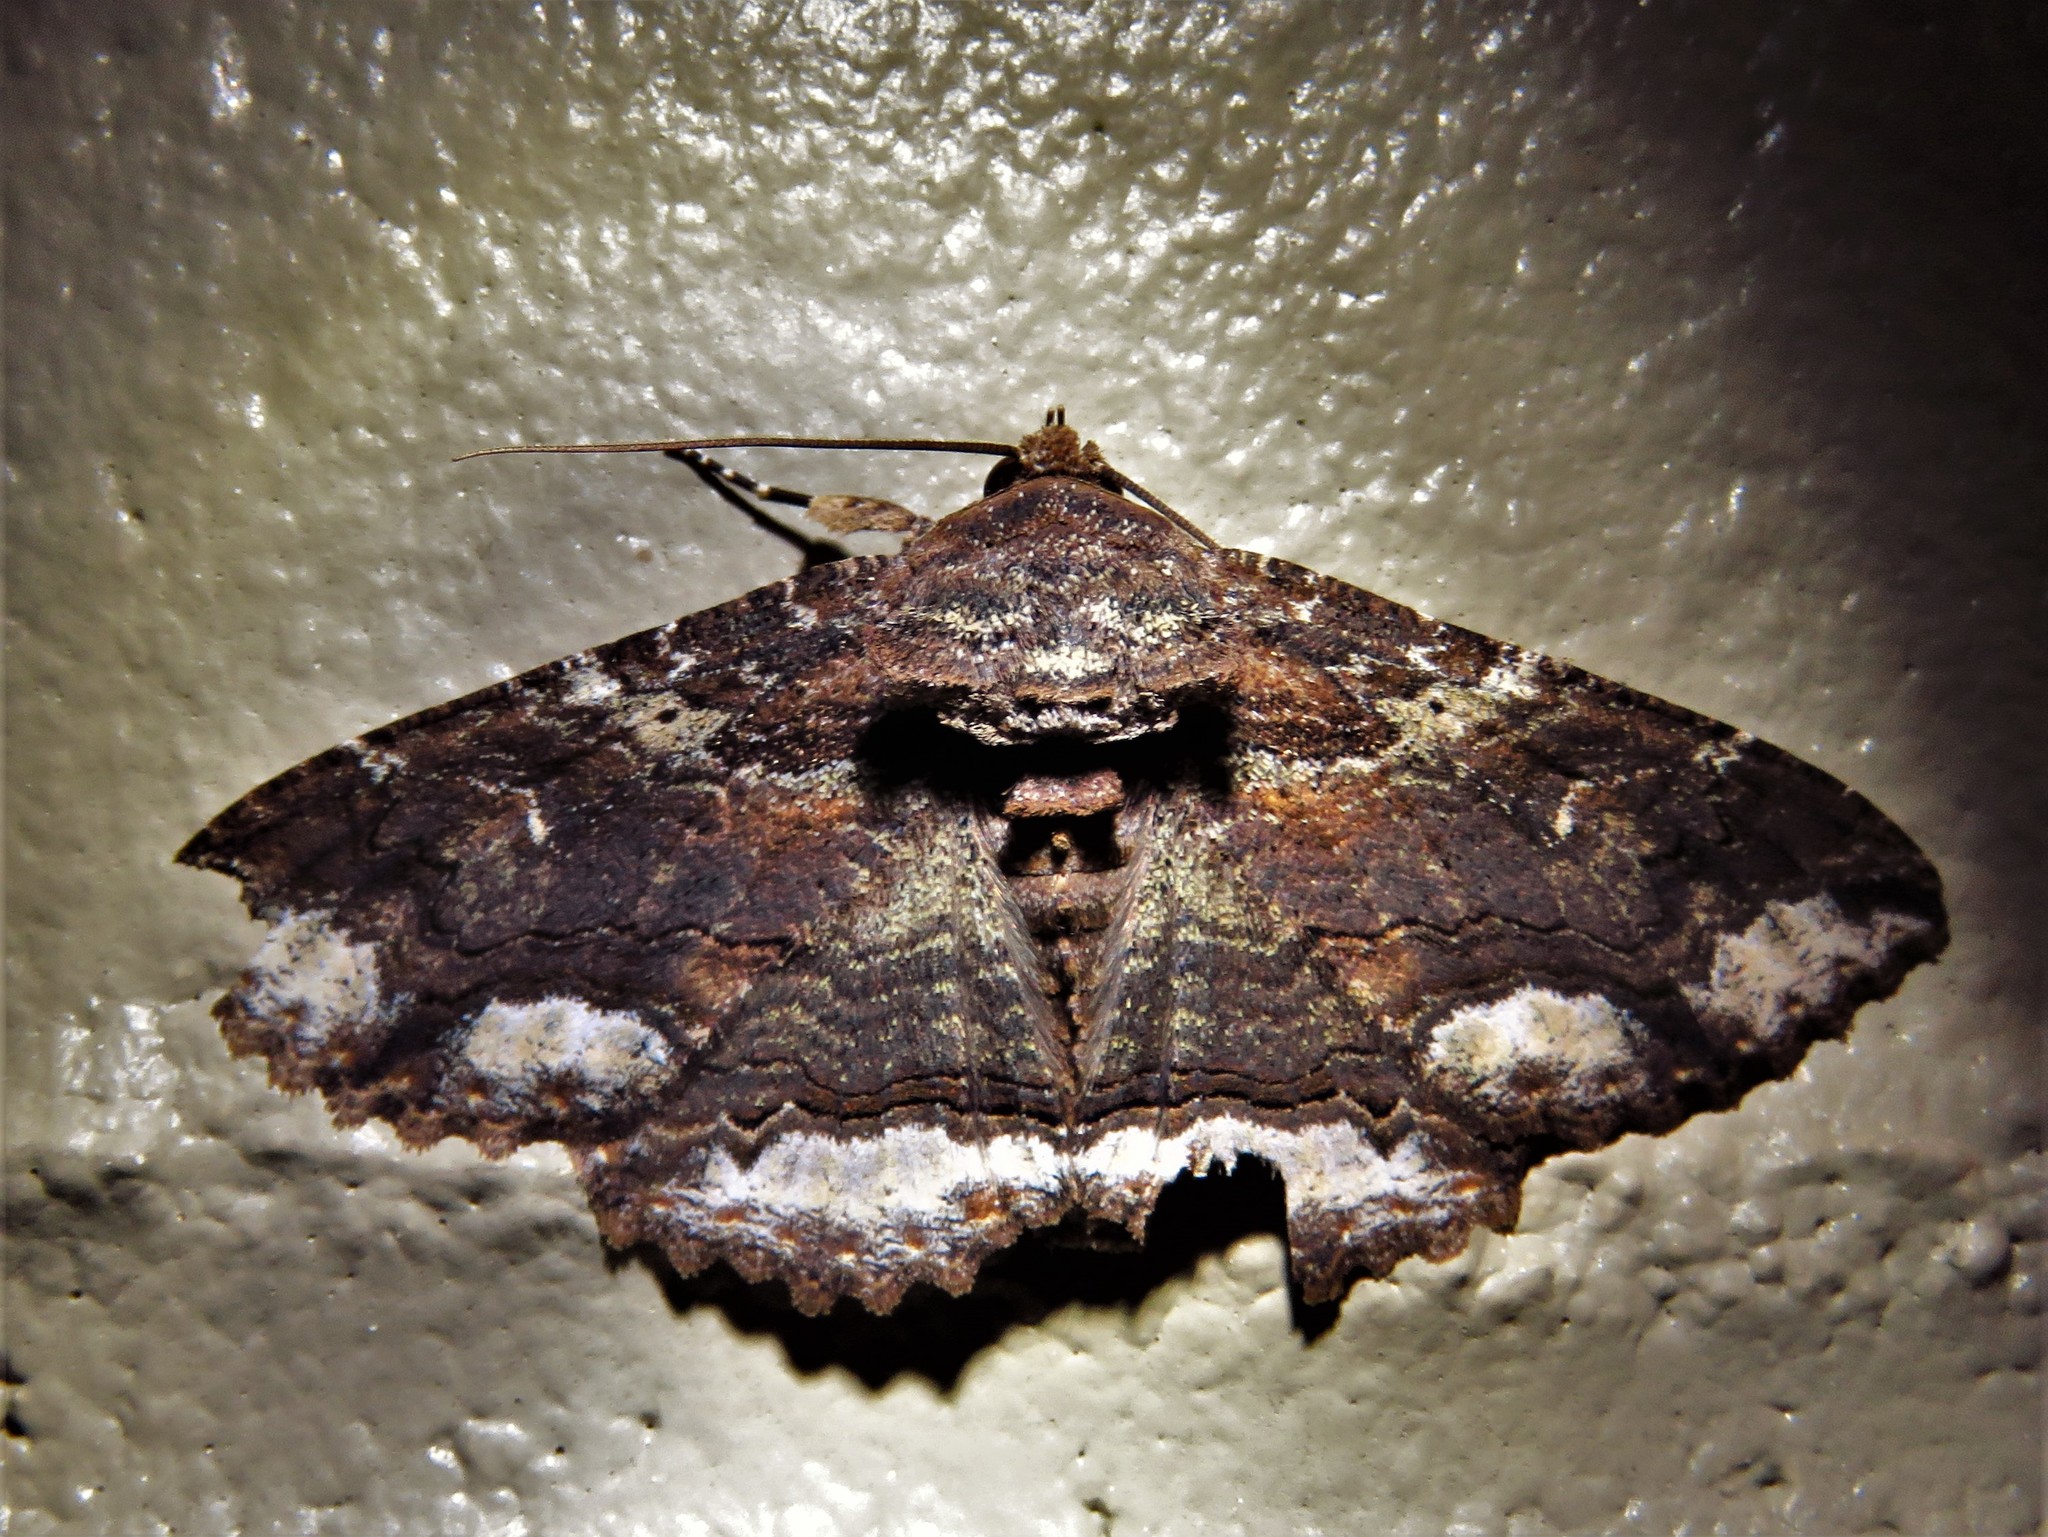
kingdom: Animalia
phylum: Arthropoda
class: Insecta
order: Lepidoptera
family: Erebidae
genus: Zale
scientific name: Zale lunata
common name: Lunate zale moth
